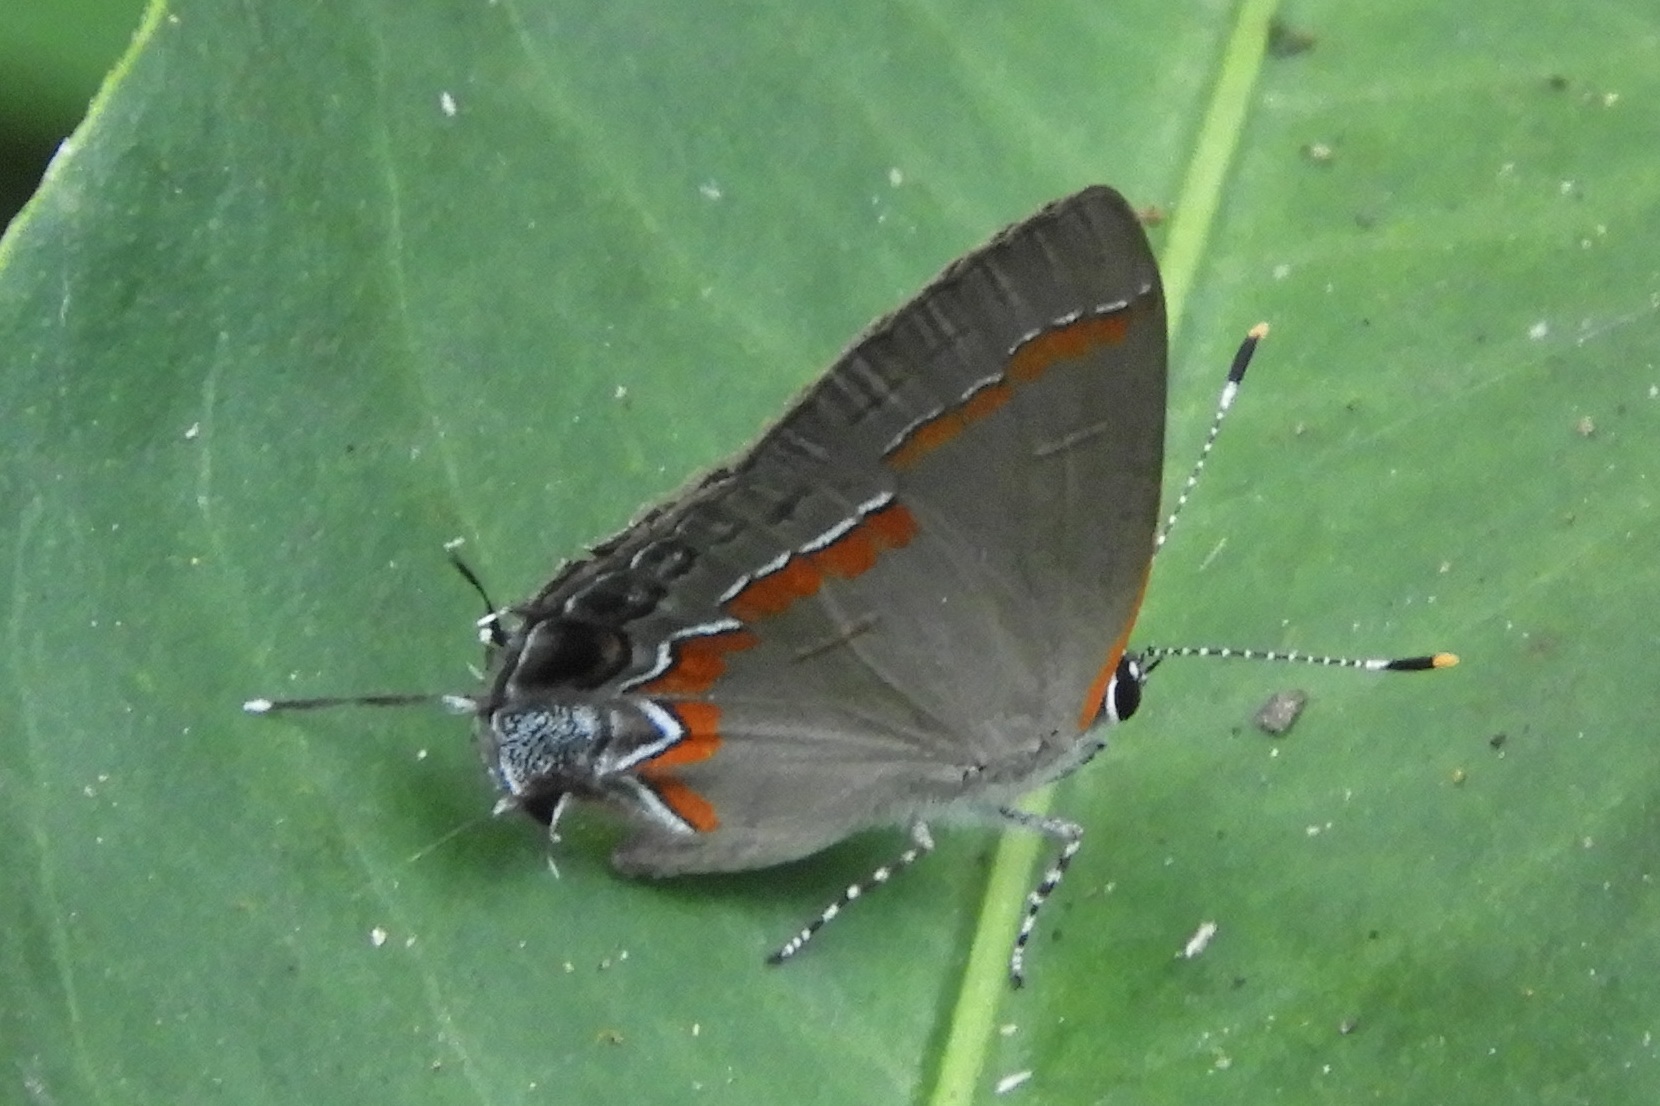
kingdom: Animalia
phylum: Arthropoda
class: Insecta
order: Lepidoptera
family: Lycaenidae
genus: Calycopis
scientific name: Calycopis cecrops
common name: Red-banded hairstreak
